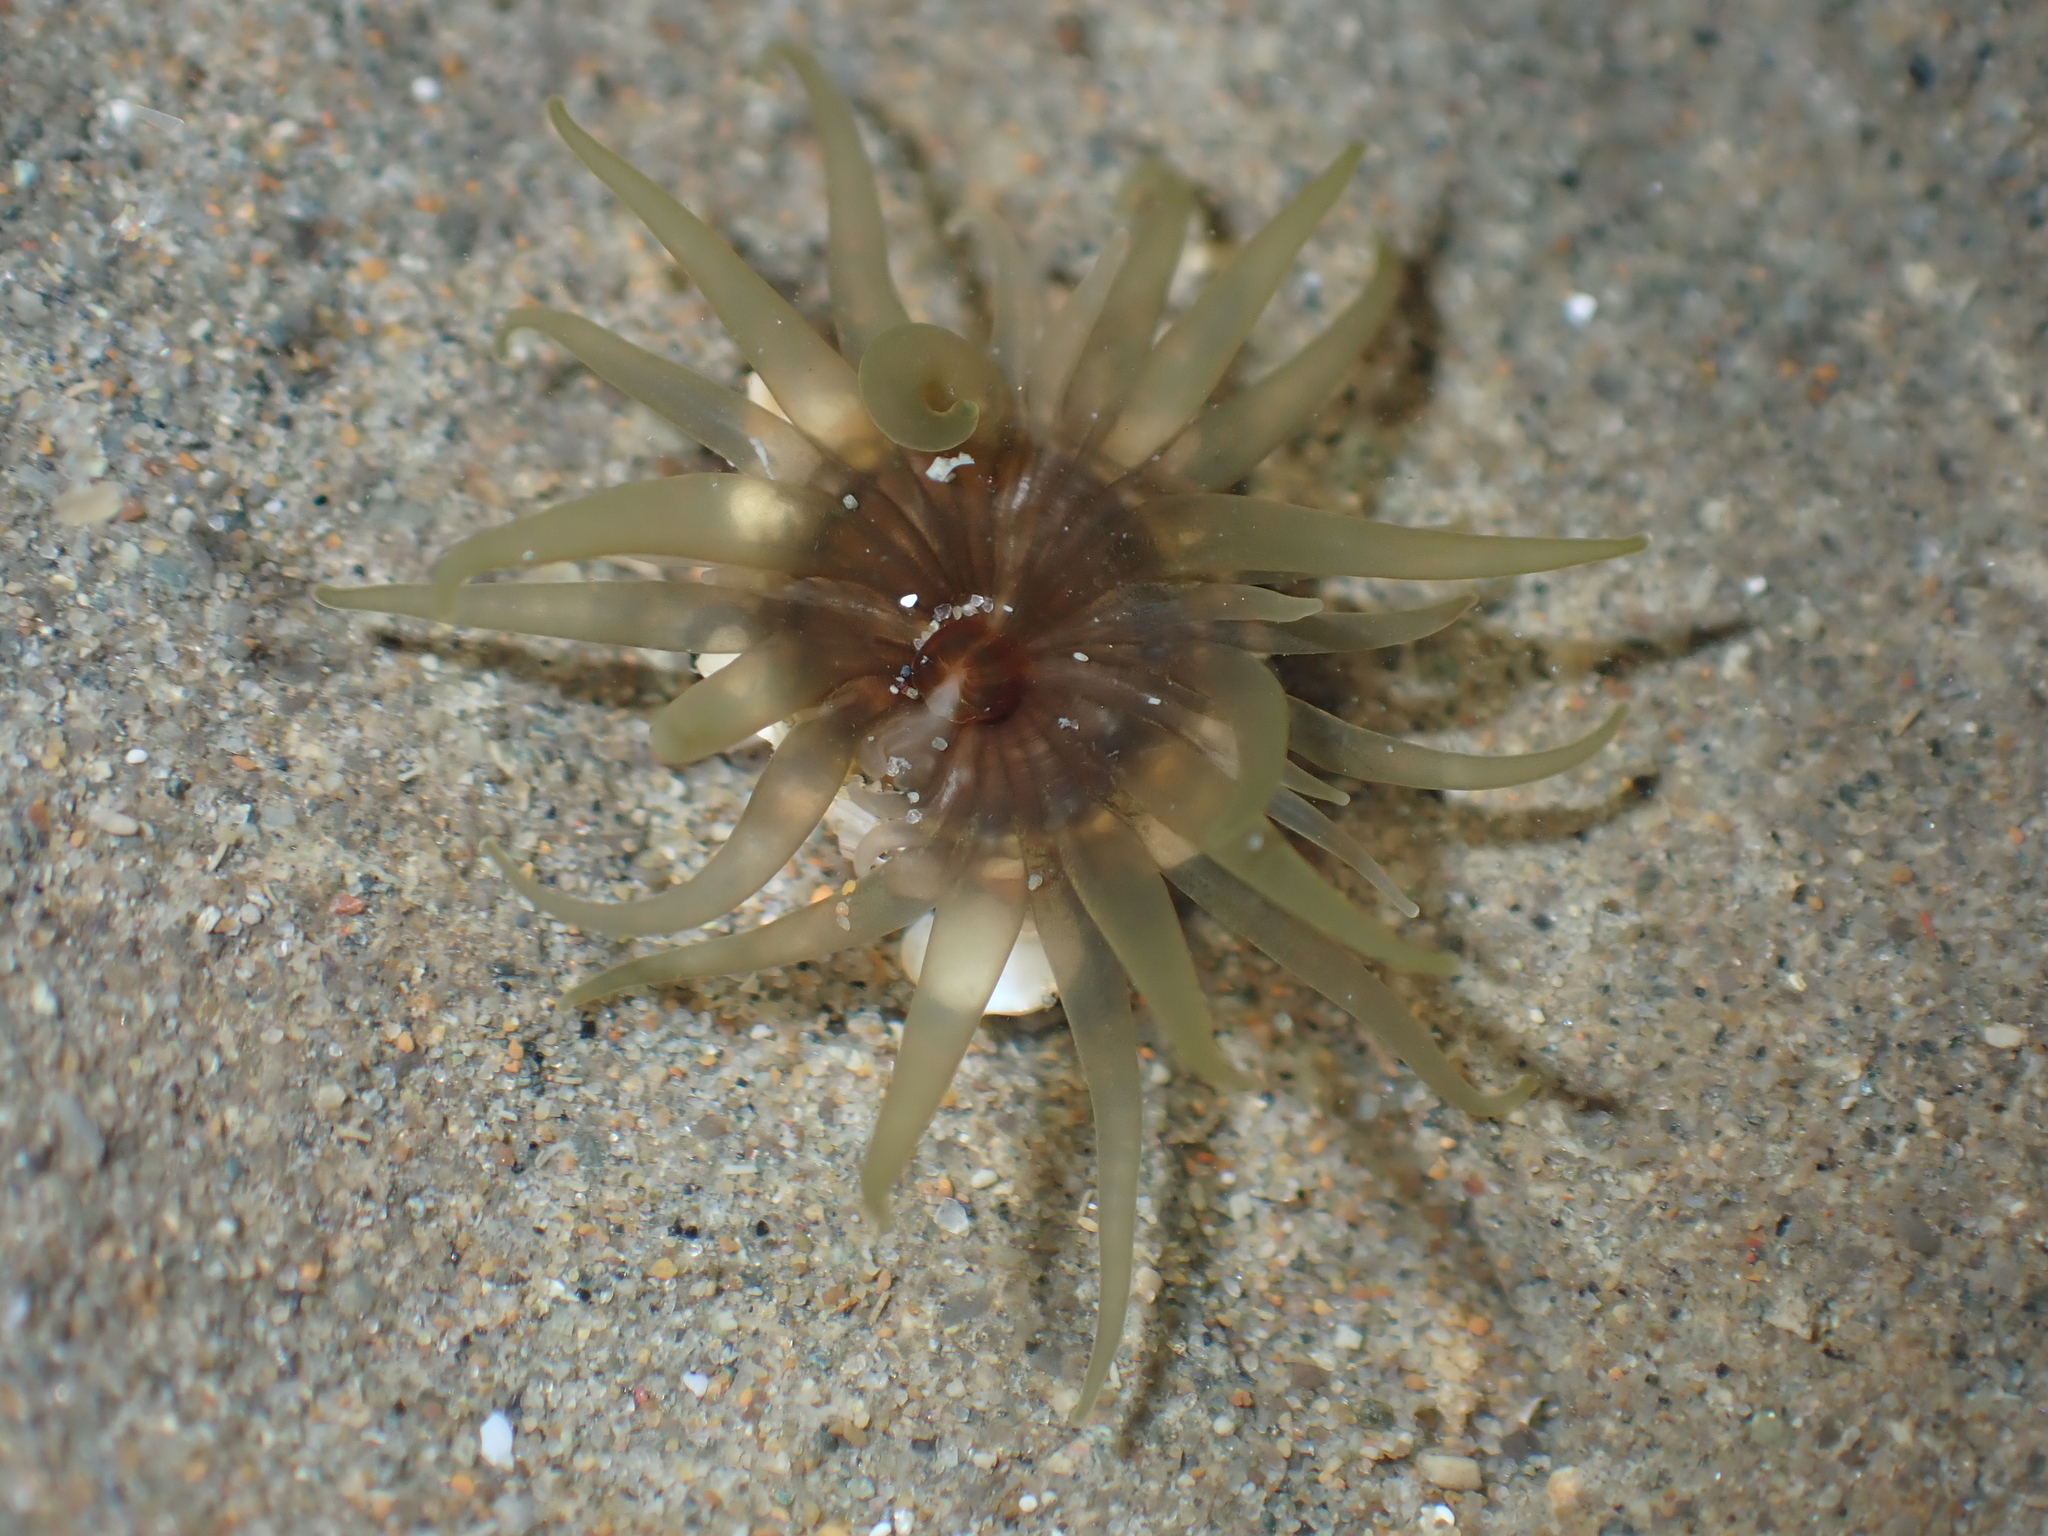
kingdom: Animalia
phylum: Cnidaria
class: Anthozoa
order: Actiniaria
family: Actiniidae
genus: Isactinia
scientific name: Isactinia olivacea
